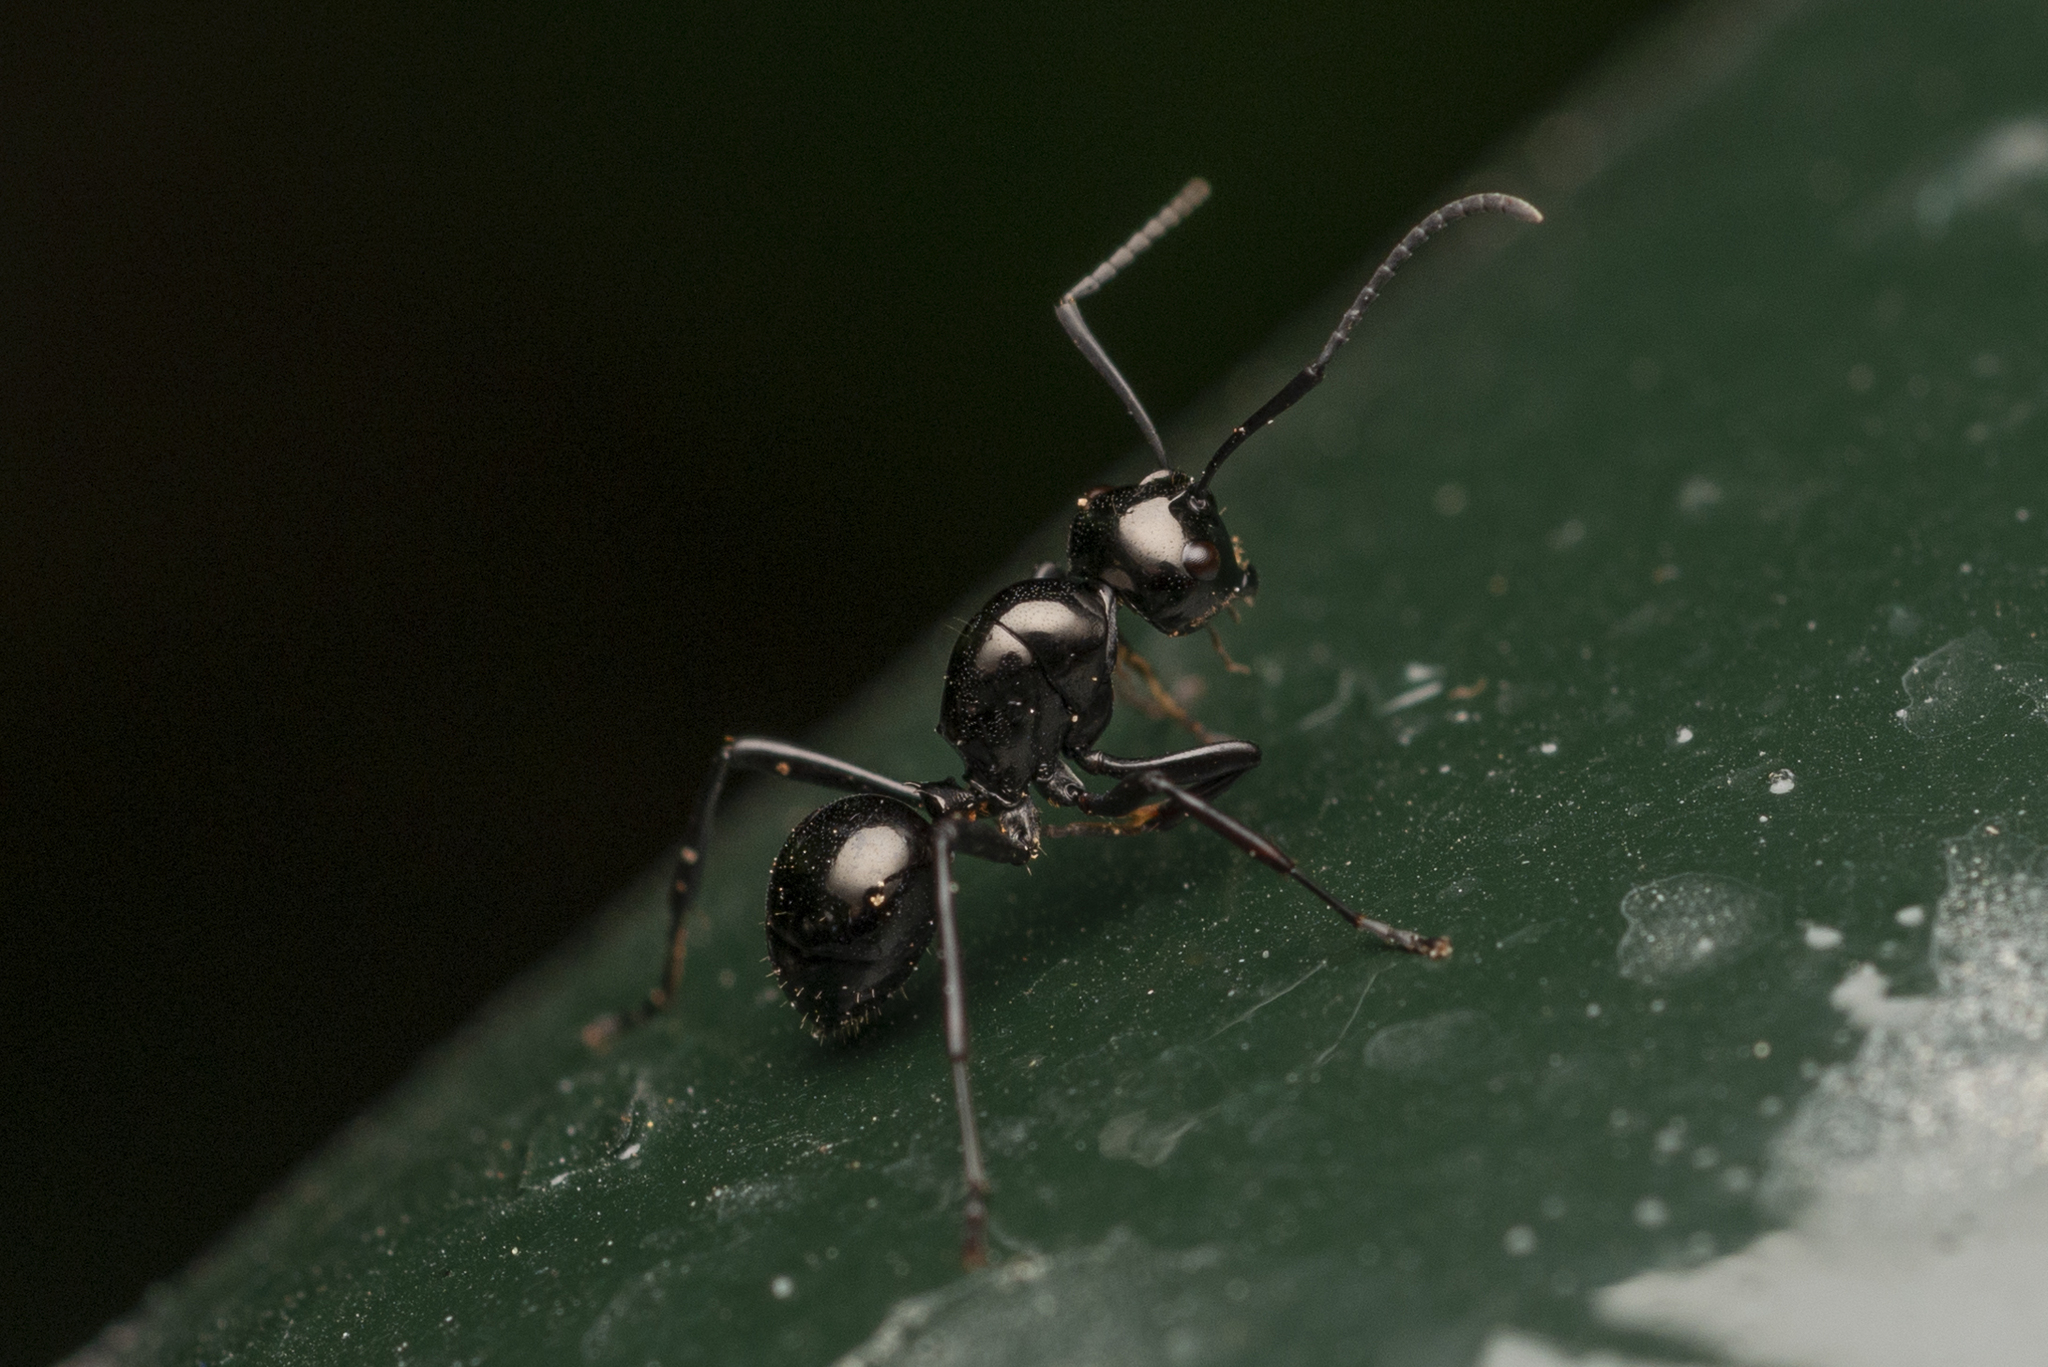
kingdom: Animalia
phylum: Arthropoda
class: Insecta
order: Hymenoptera
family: Formicidae
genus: Polyrhachis
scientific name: Polyrhachis demangei
